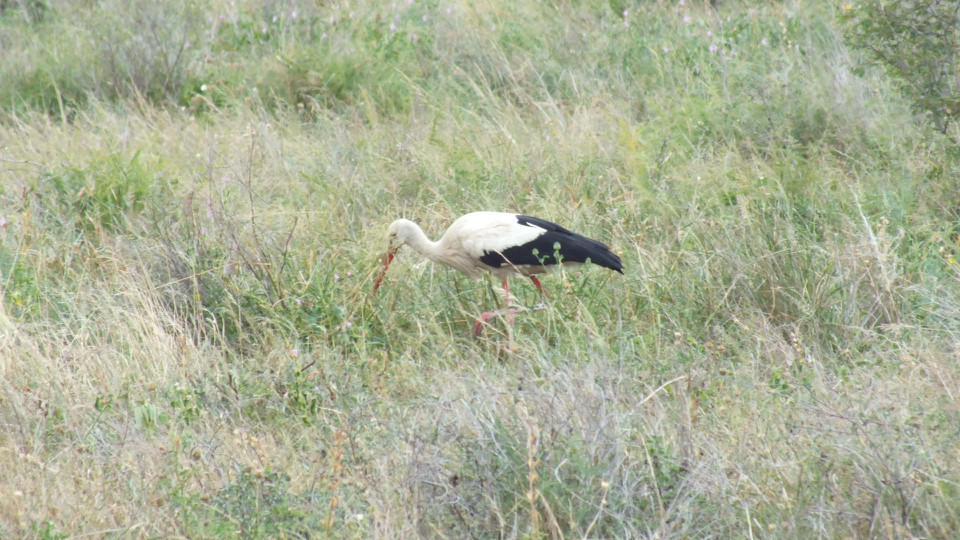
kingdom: Animalia
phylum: Chordata
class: Aves
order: Ciconiiformes
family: Ciconiidae
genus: Ciconia
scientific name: Ciconia ciconia
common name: White stork
